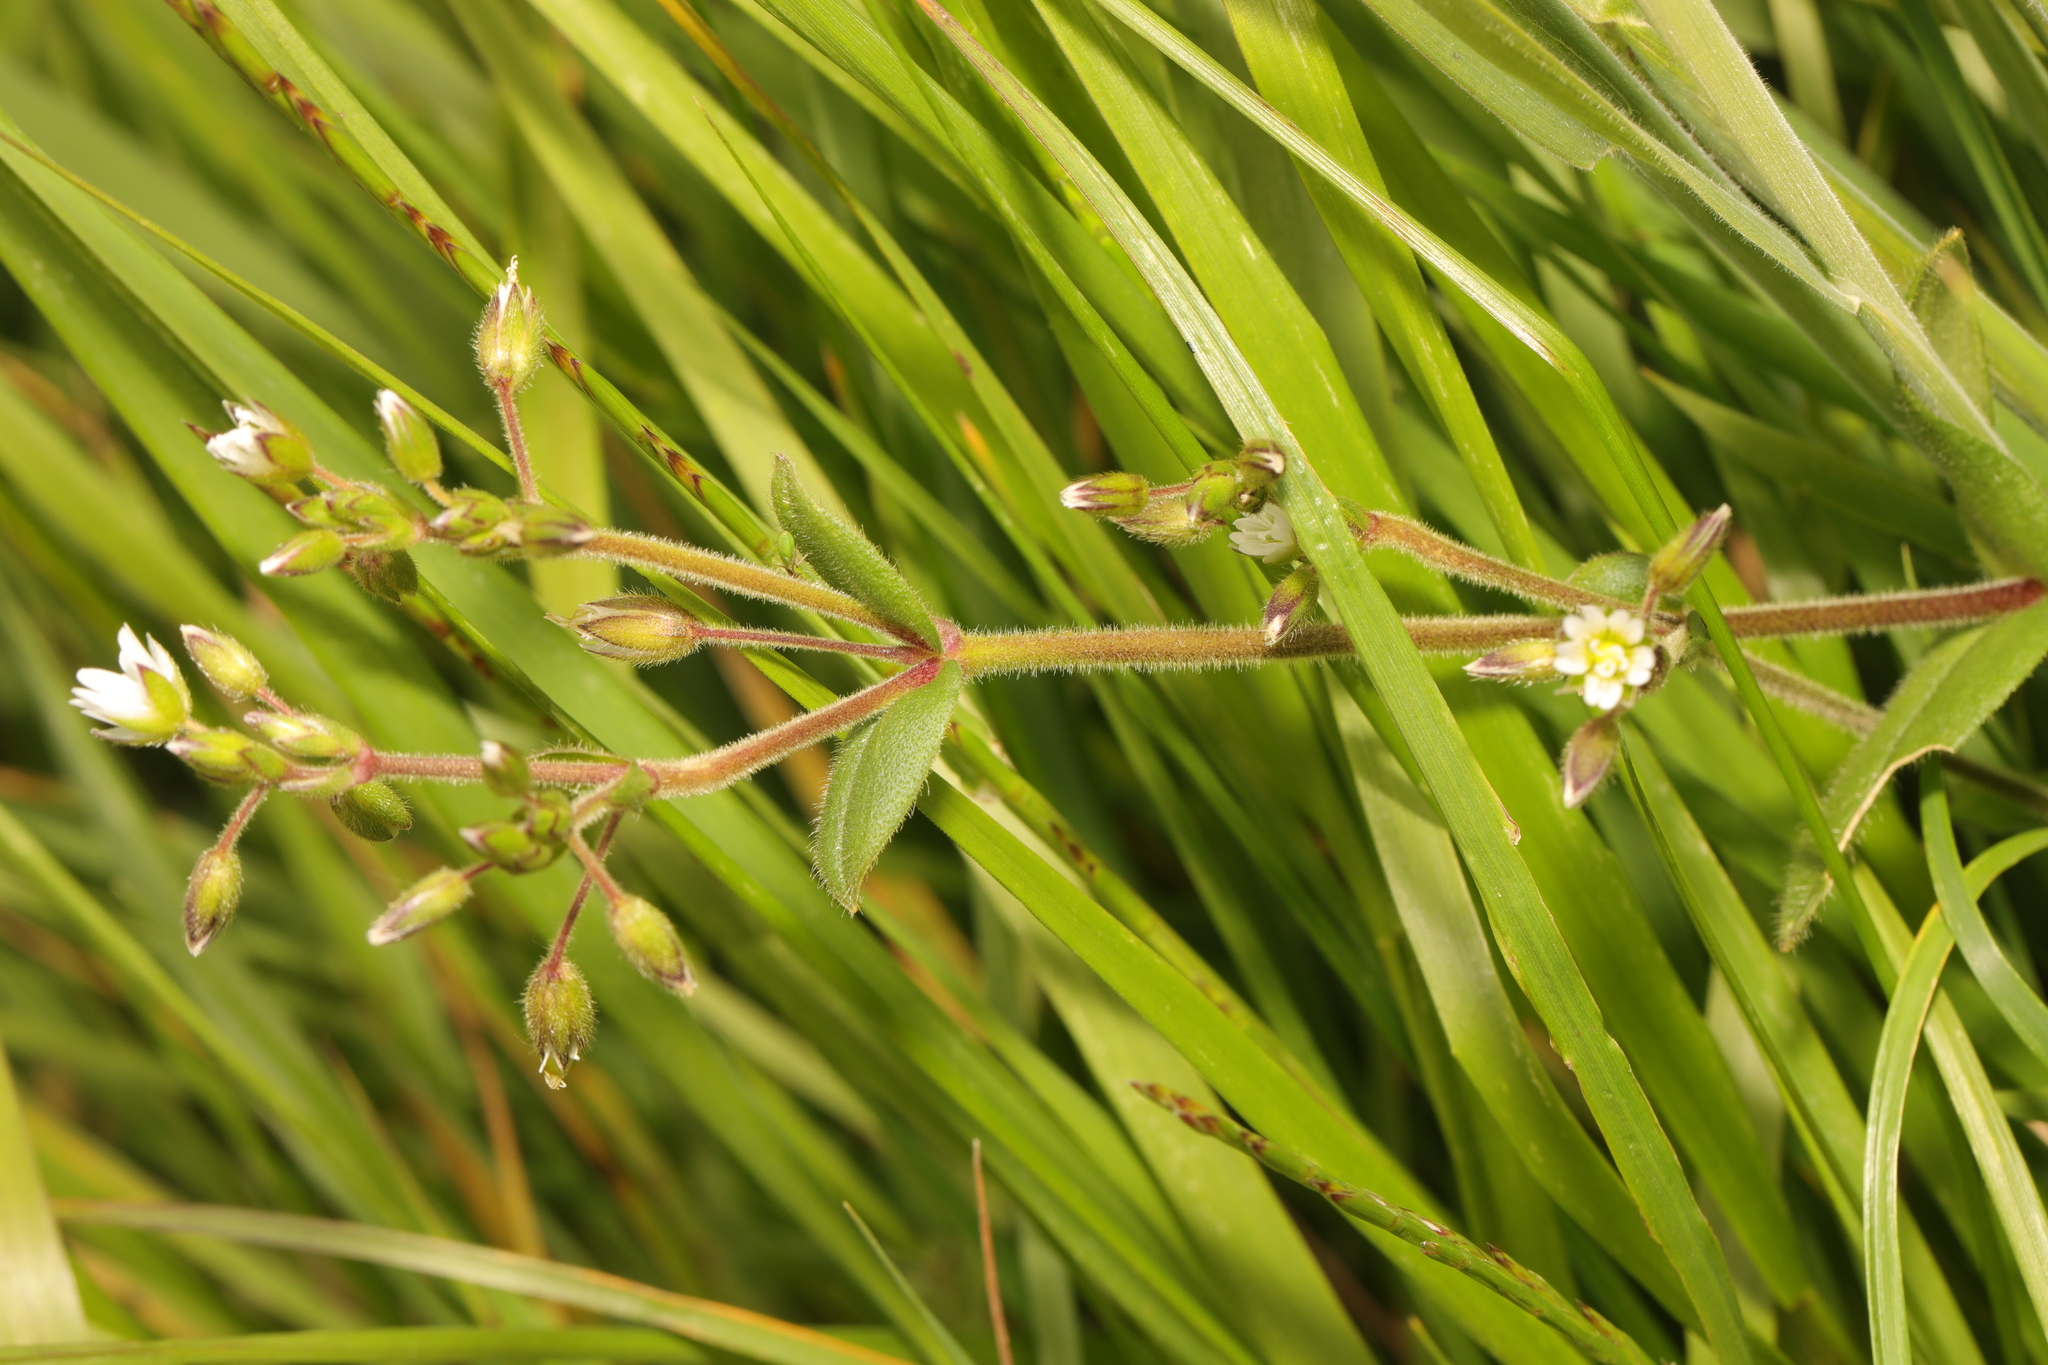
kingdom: Plantae
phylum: Tracheophyta
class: Magnoliopsida
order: Caryophyllales
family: Caryophyllaceae
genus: Cerastium
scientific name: Cerastium fontanum
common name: Common mouse-ear
